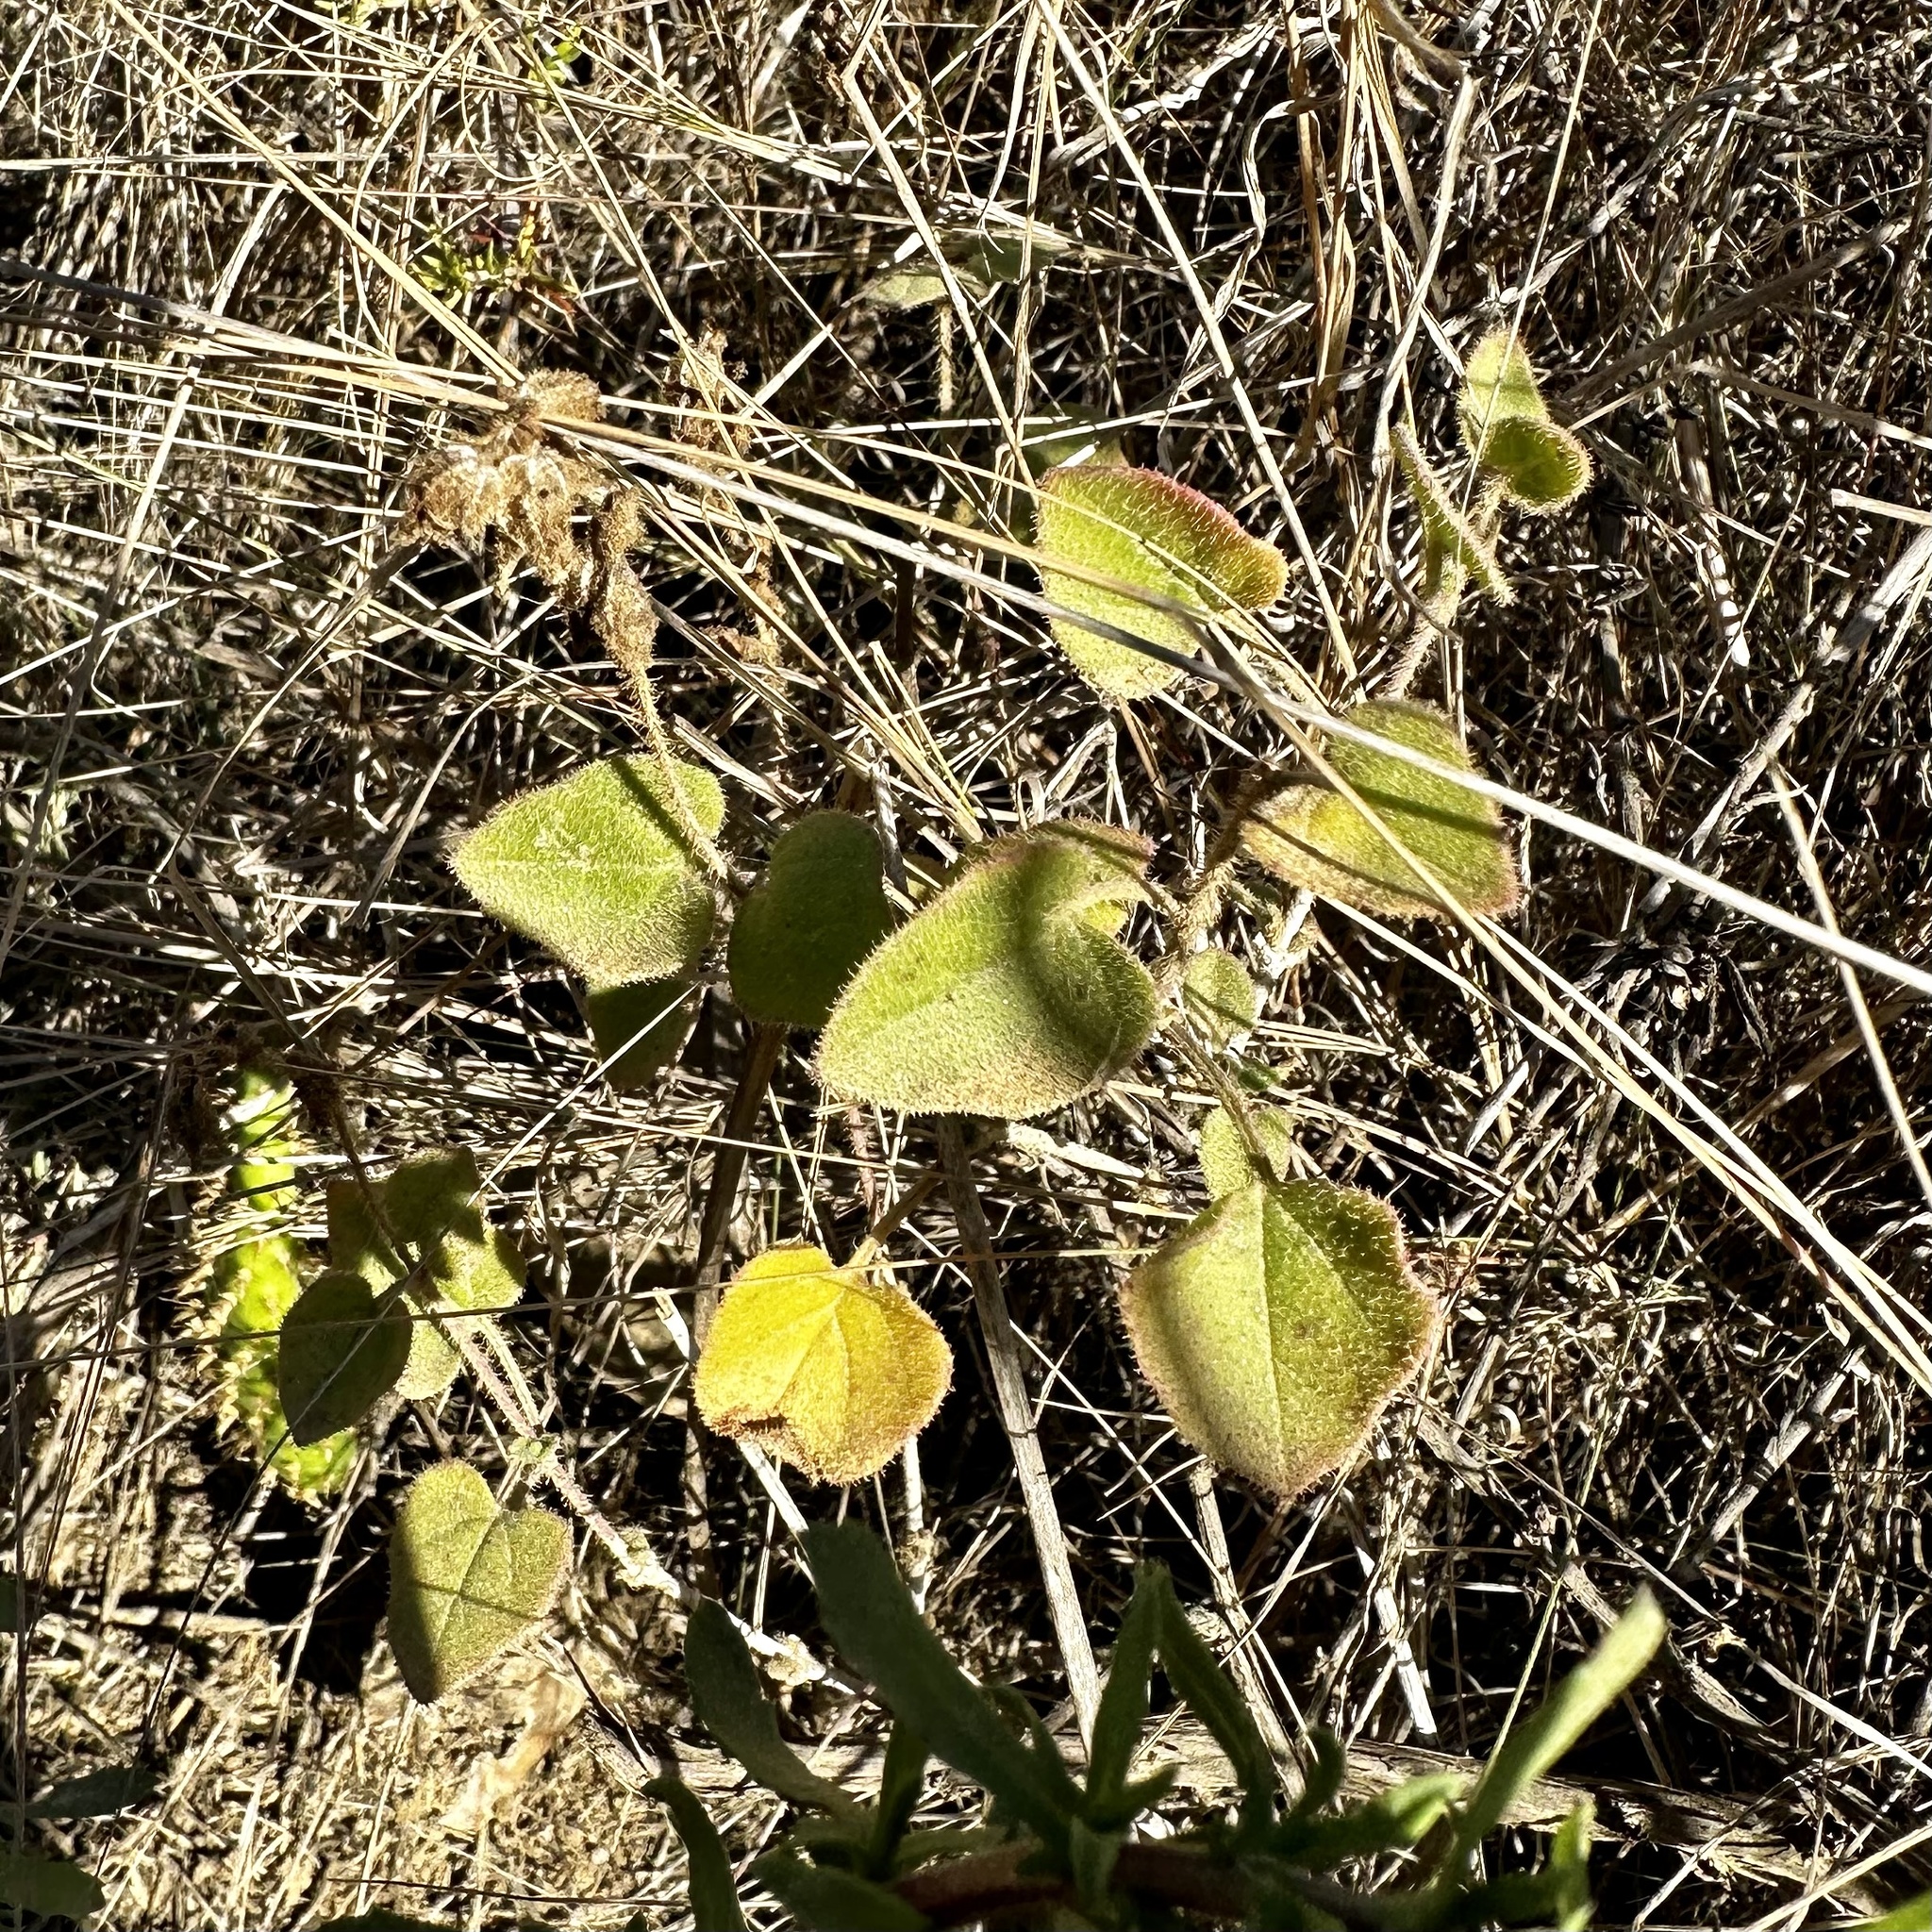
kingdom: Plantae
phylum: Tracheophyta
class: Magnoliopsida
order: Caryophyllales
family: Nyctaginaceae
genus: Mirabilis
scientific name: Mirabilis laevis
